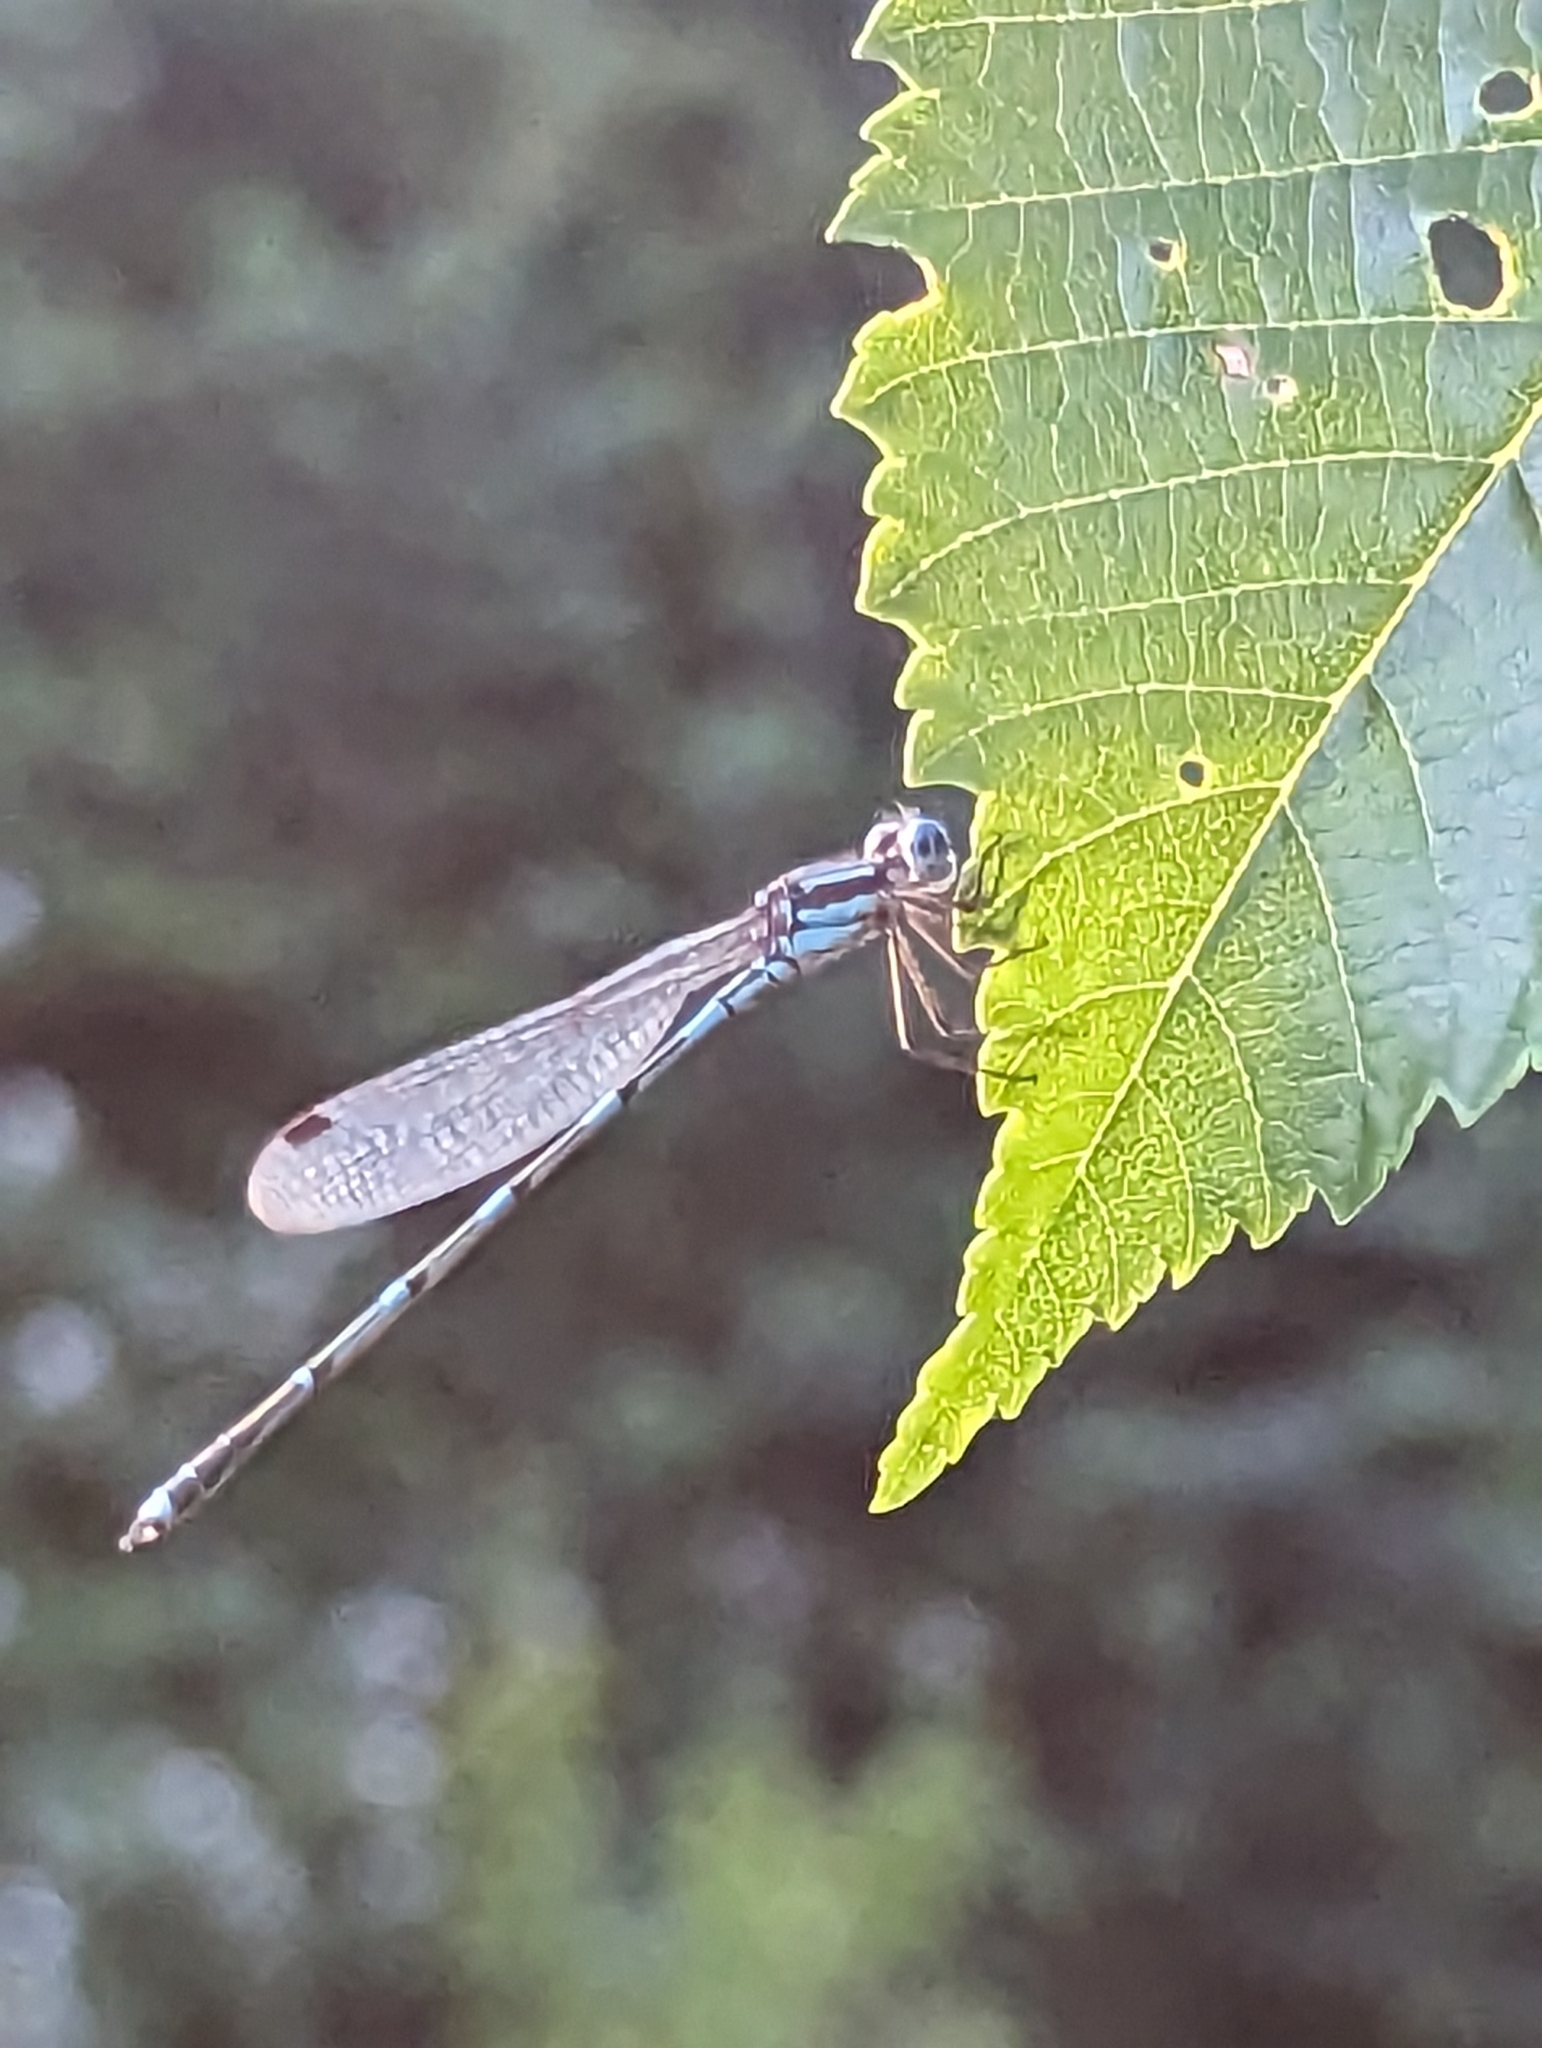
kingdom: Animalia
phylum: Arthropoda
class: Insecta
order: Odonata
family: Lestidae
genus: Austrolestes
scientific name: Austrolestes leda
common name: Wandering ringtail
